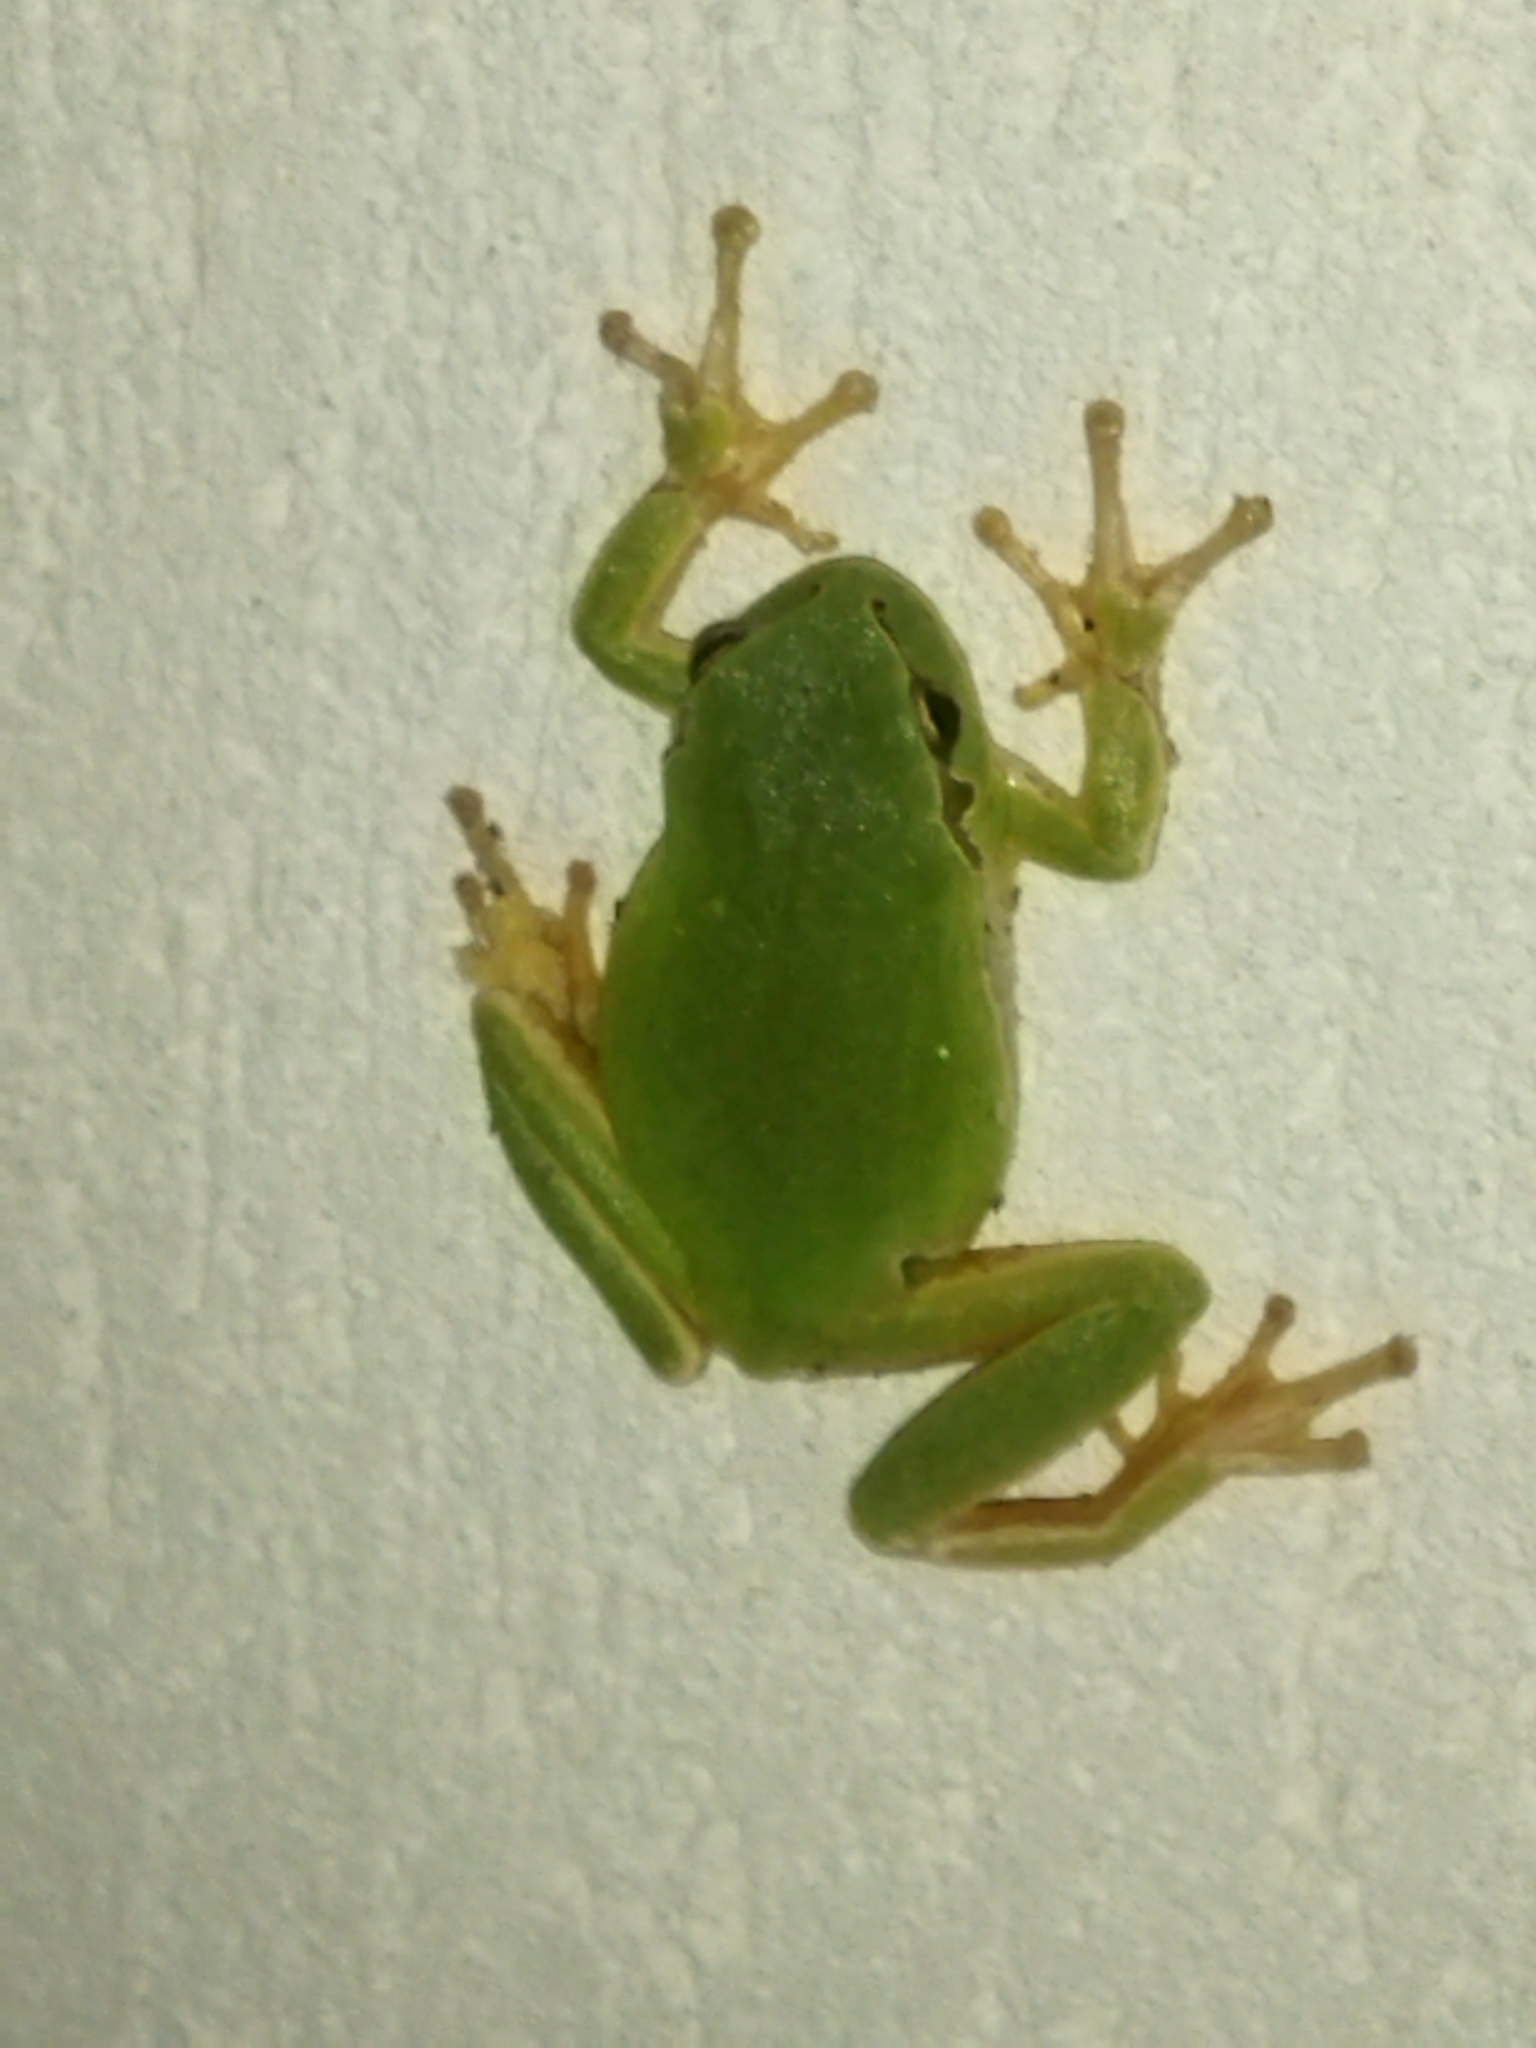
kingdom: Animalia
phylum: Chordata
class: Amphibia
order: Anura
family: Hylidae
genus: Hyla
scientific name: Hyla orientalis
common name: Caucasian treefrog
